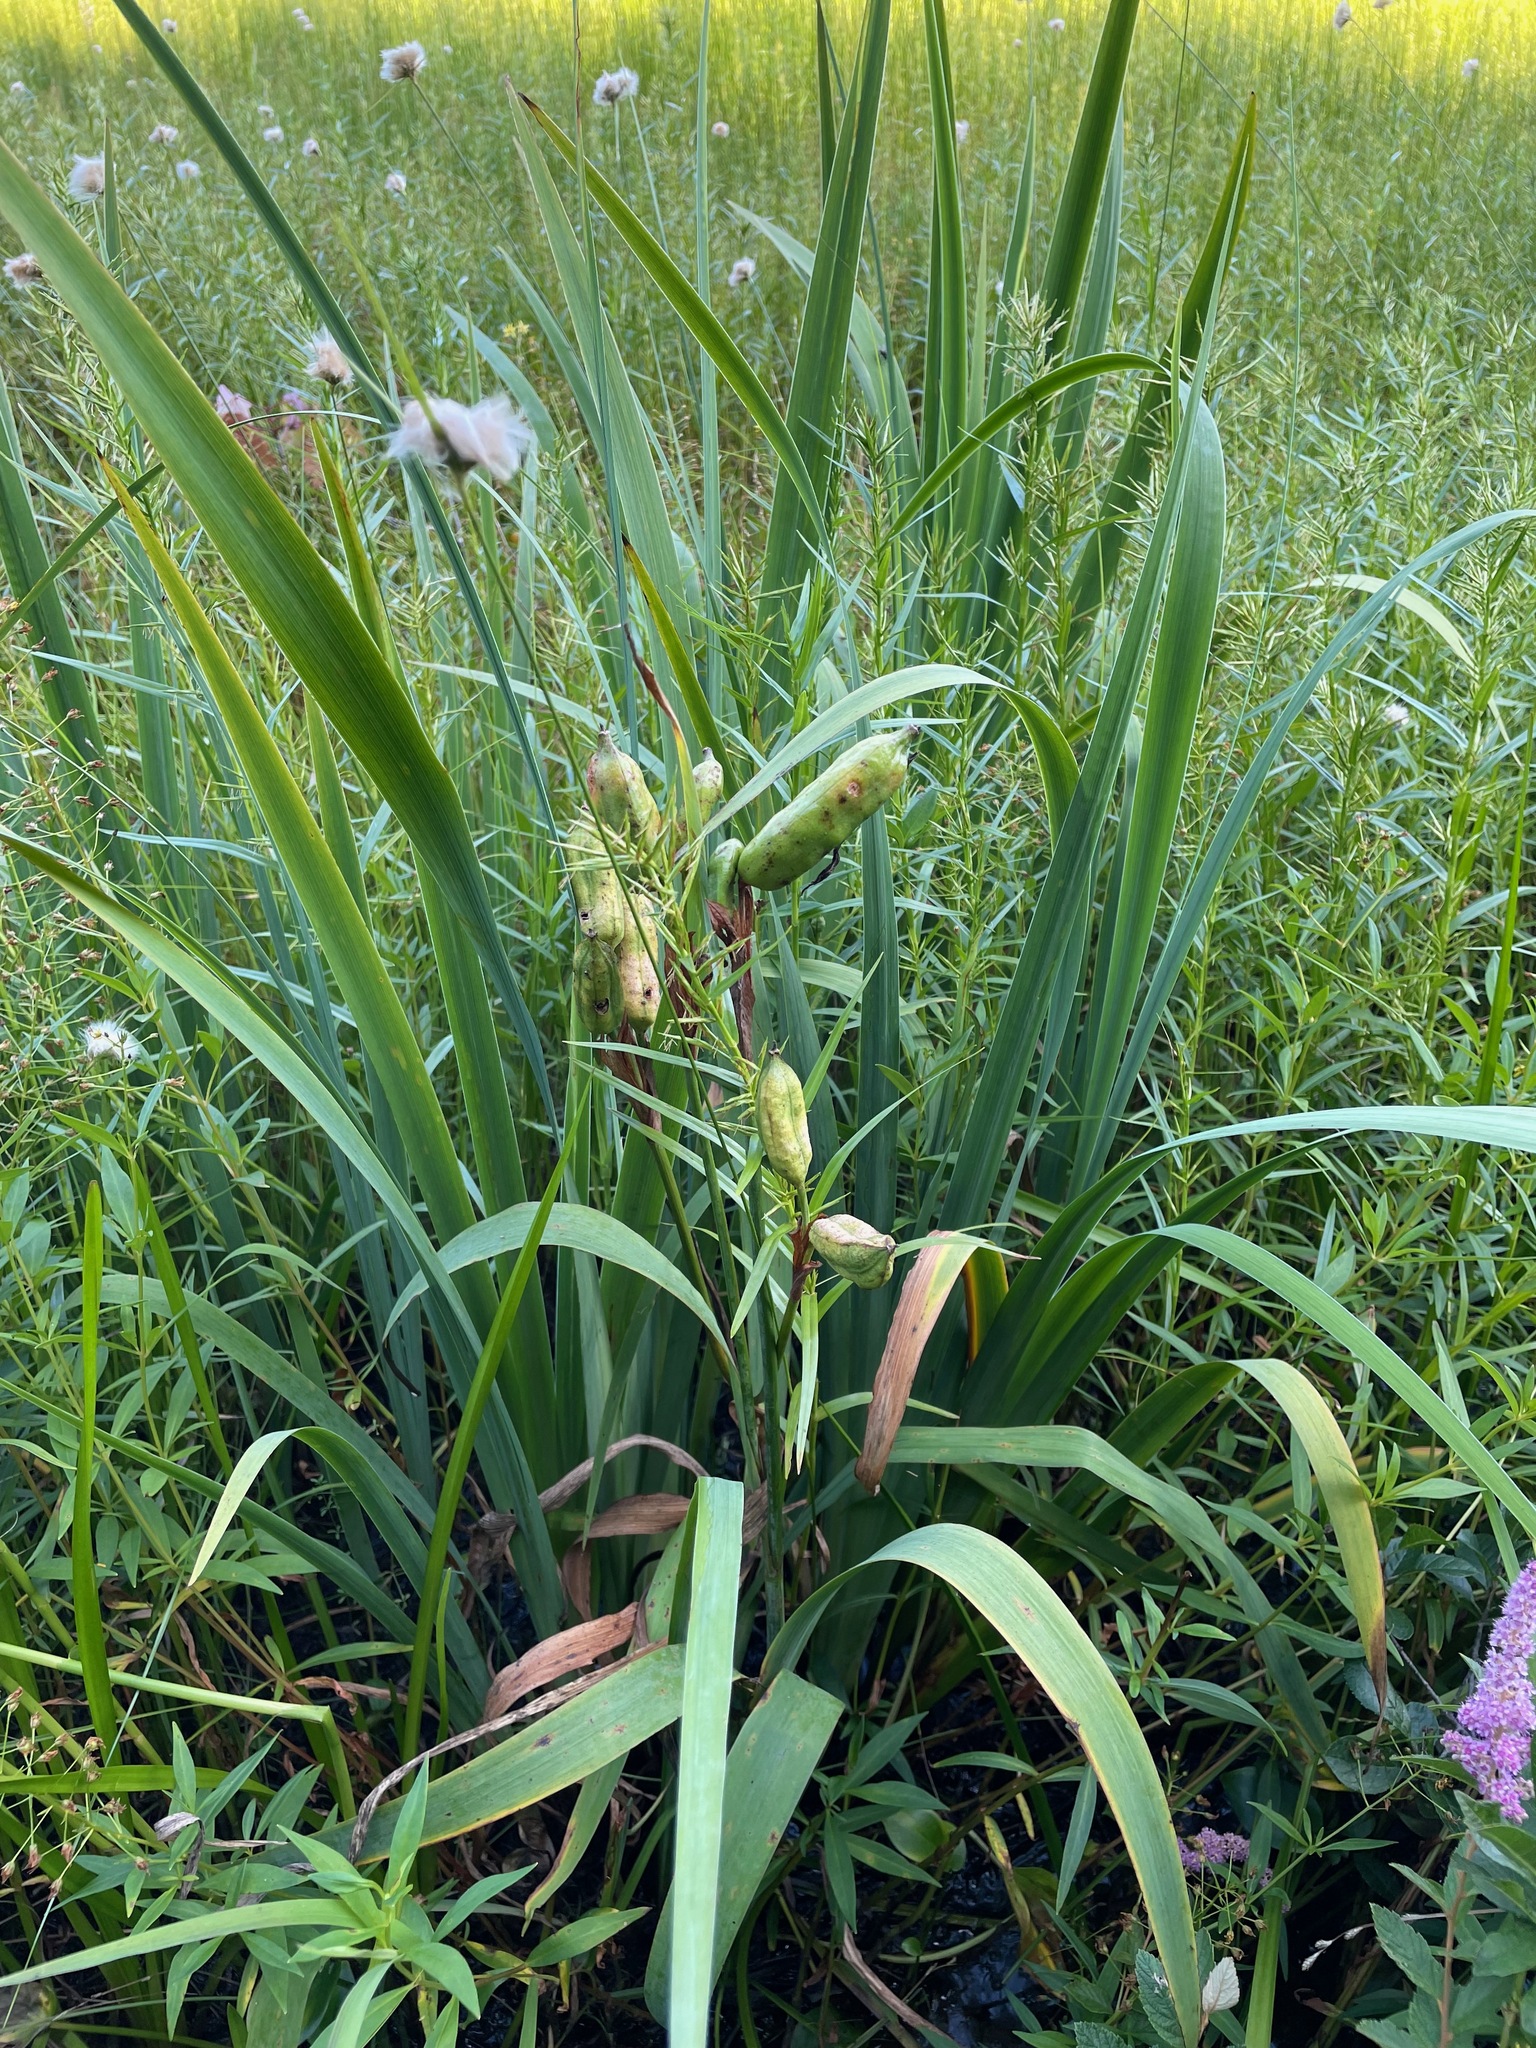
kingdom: Plantae
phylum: Tracheophyta
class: Liliopsida
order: Asparagales
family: Iridaceae
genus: Iris
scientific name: Iris versicolor
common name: Purple iris
